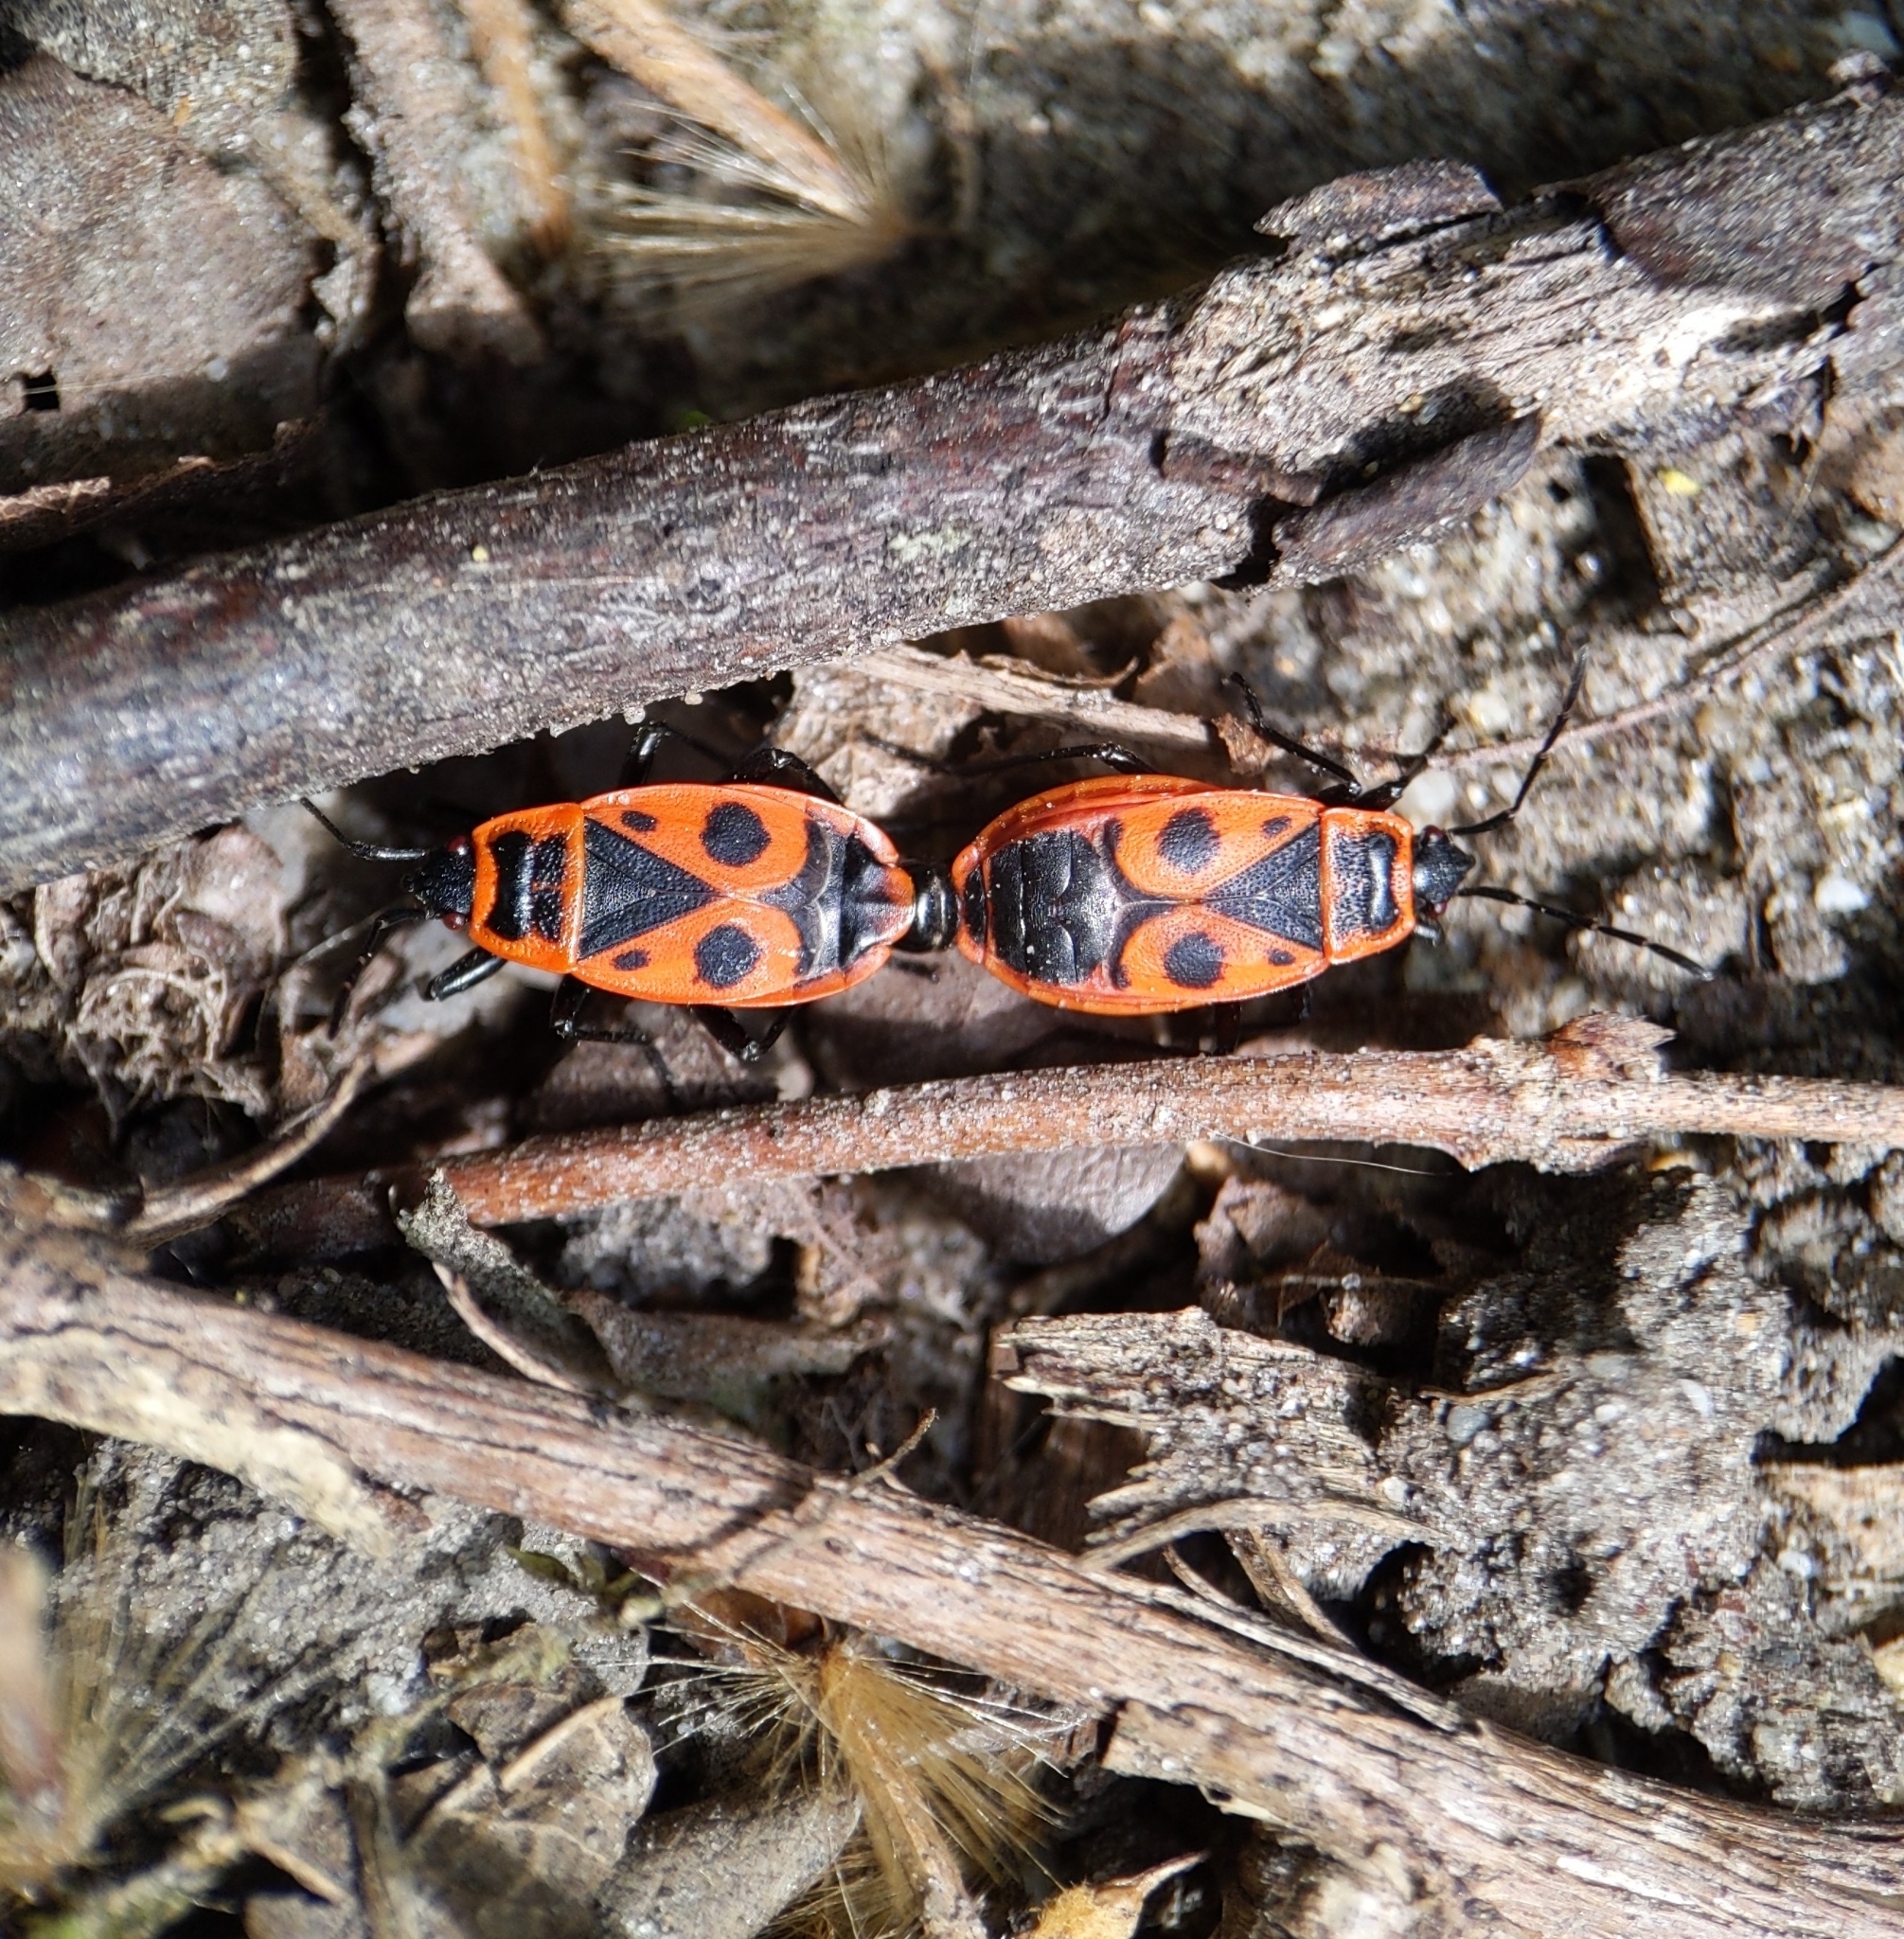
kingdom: Animalia
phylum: Arthropoda
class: Insecta
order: Hemiptera
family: Pyrrhocoridae
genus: Pyrrhocoris
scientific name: Pyrrhocoris apterus
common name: Firebug
